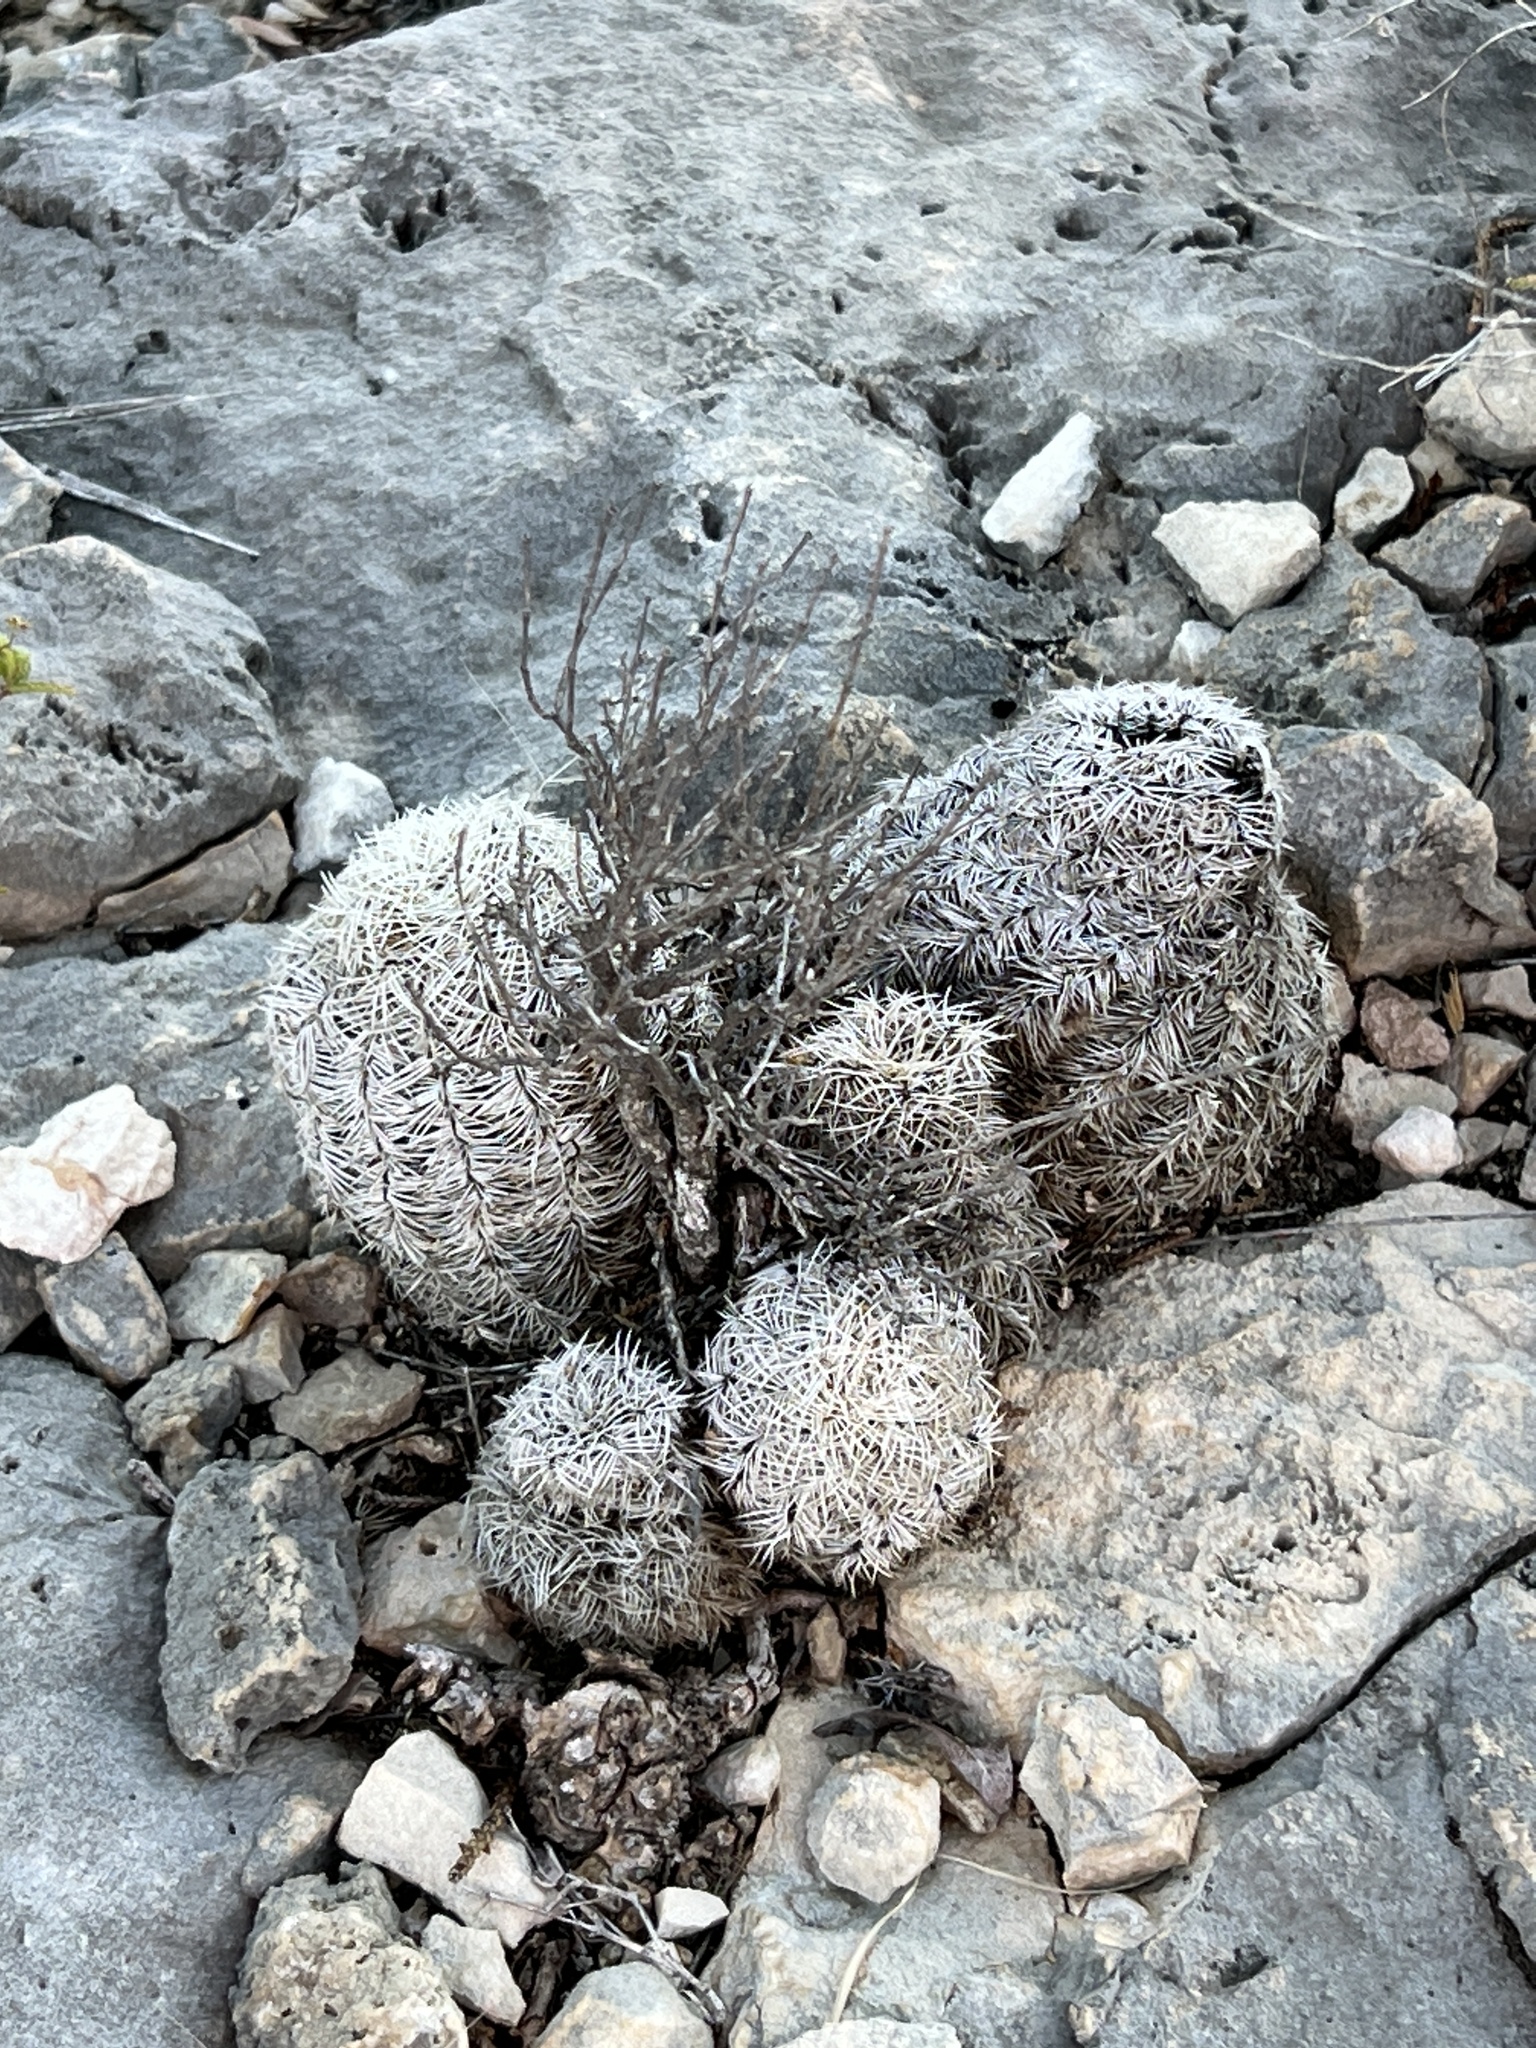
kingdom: Plantae
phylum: Tracheophyta
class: Magnoliopsida
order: Caryophyllales
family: Cactaceae
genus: Echinocereus
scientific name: Echinocereus reichenbachii
